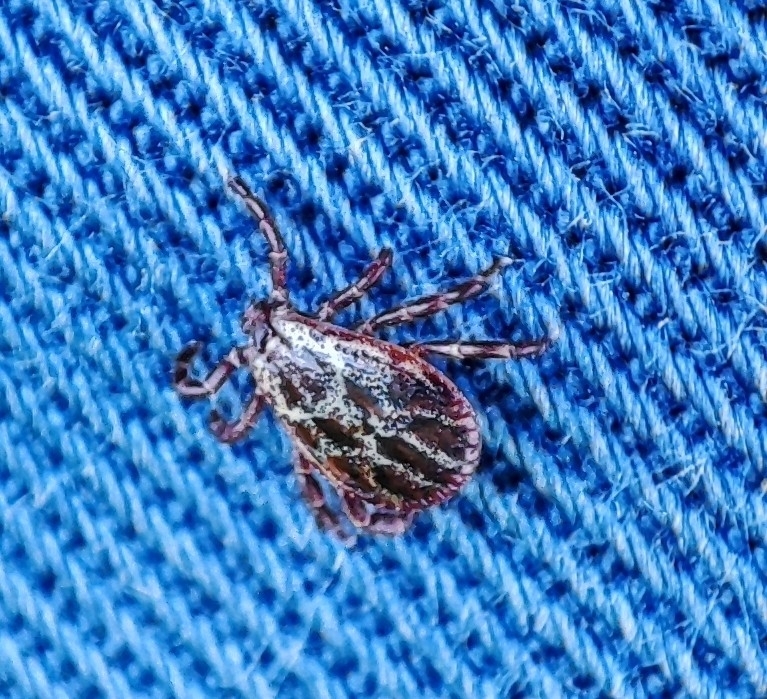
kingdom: Animalia
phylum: Arthropoda
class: Arachnida
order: Ixodida
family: Ixodidae
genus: Dermacentor
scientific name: Dermacentor reticulatus
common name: Ornate cow tick
